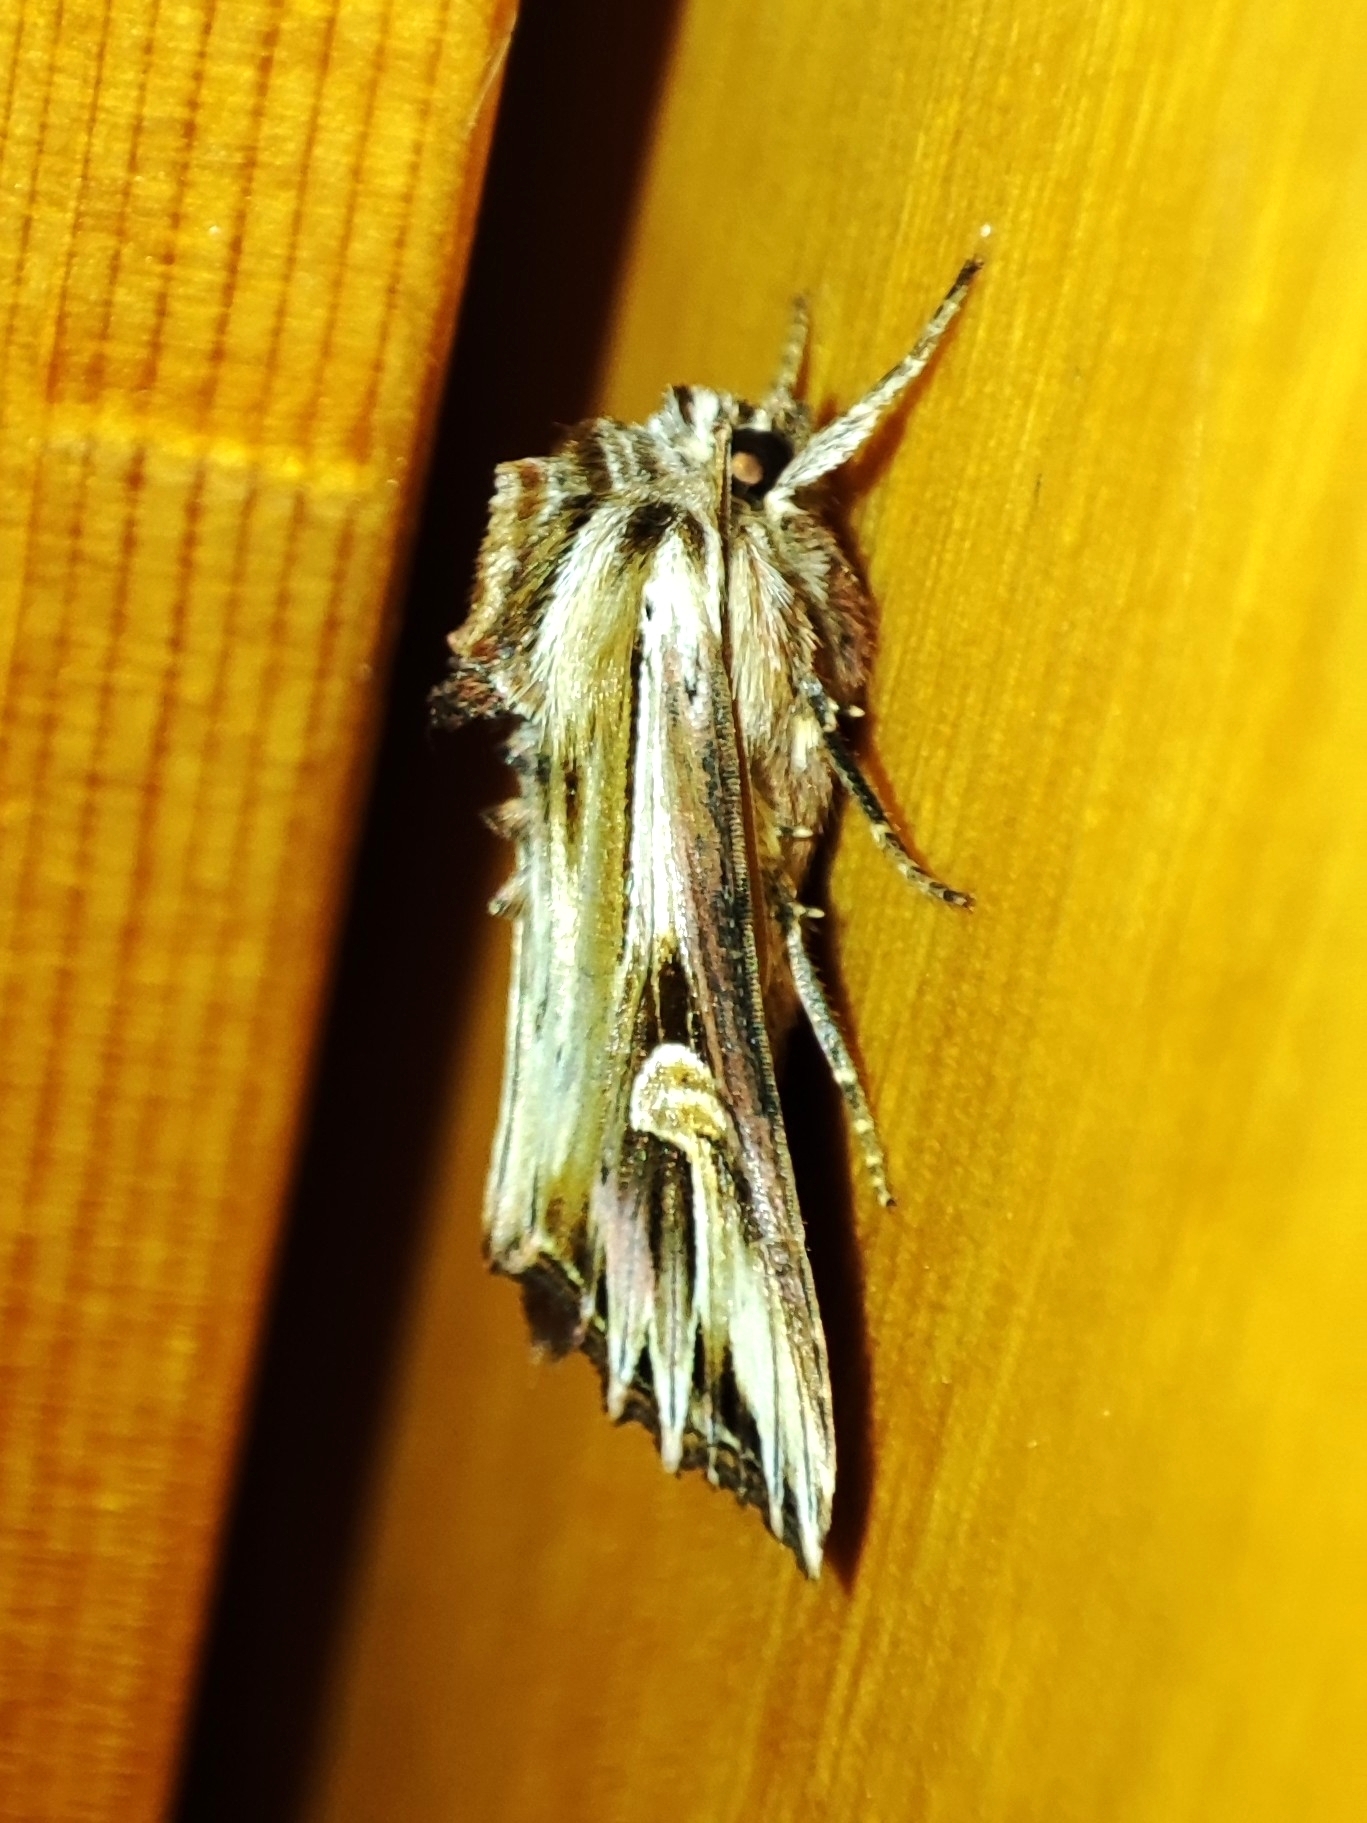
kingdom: Animalia
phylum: Arthropoda
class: Insecta
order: Lepidoptera
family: Noctuidae
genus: Actinotia
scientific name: Actinotia polyodon
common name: Purple cloud
